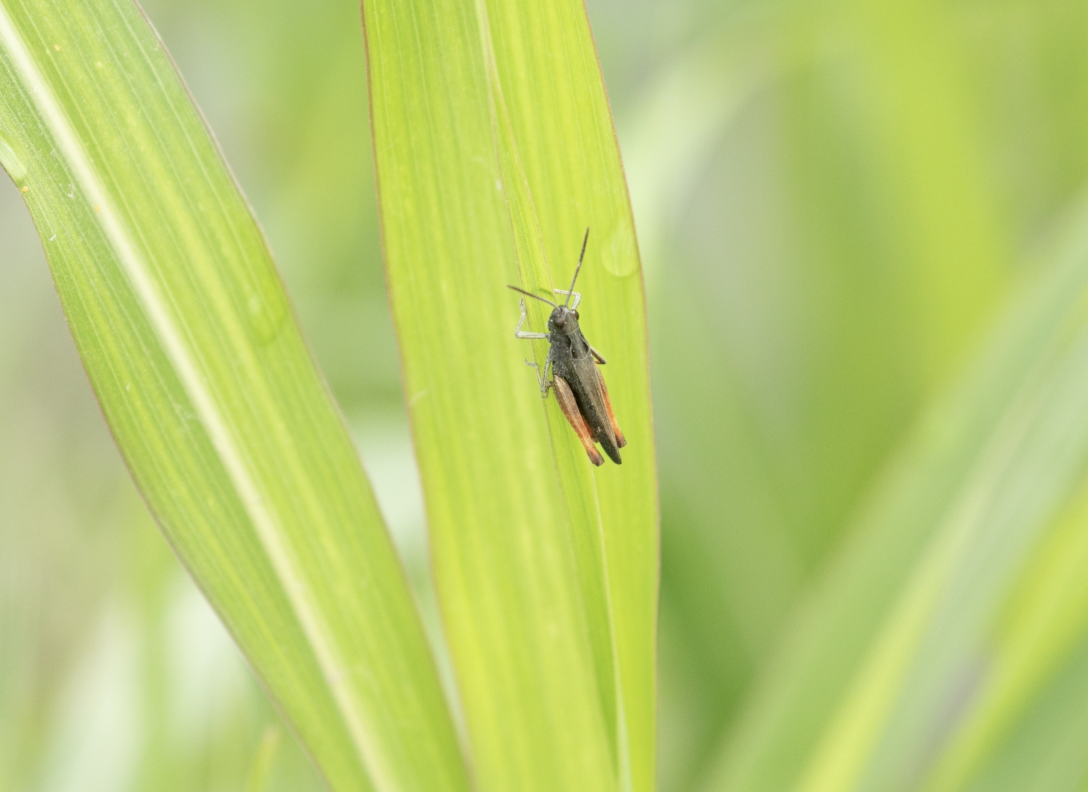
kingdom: Animalia
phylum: Arthropoda
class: Insecta
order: Orthoptera
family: Acrididae
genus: Omocestus
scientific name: Omocestus rufipes
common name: Woodland grasshopper
